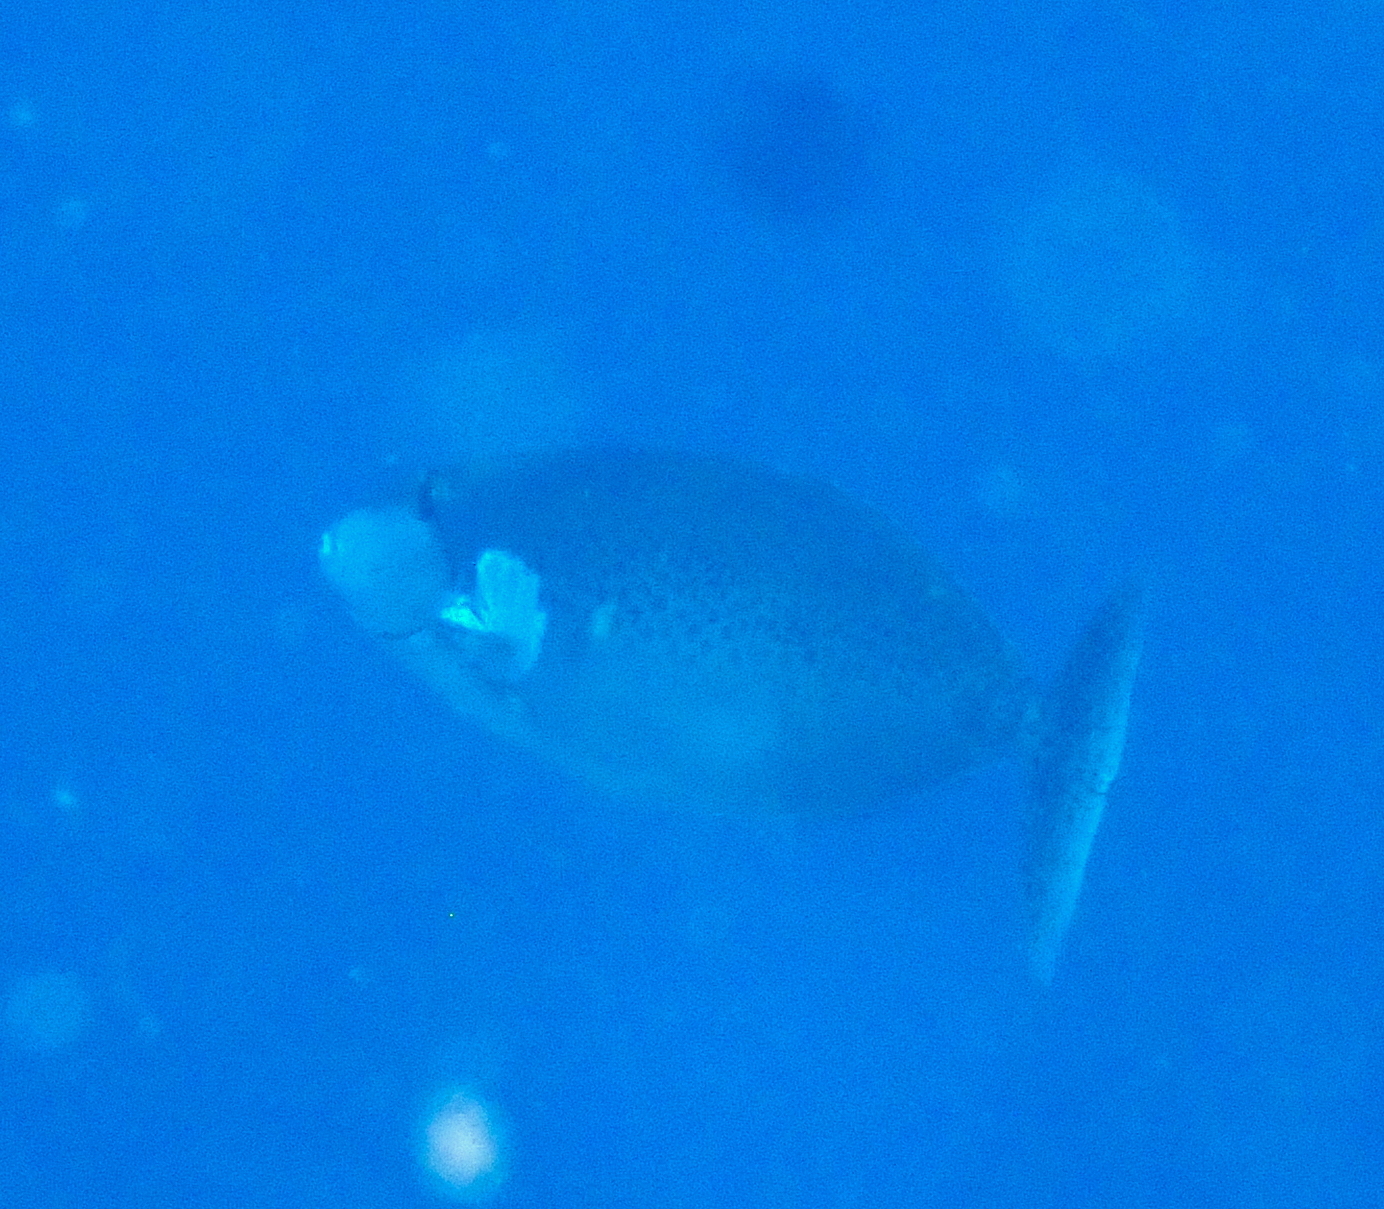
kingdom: Animalia
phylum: Chordata
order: Perciformes
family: Acanthuridae
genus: Naso
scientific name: Naso lopezi
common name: Elongate unicornfish
